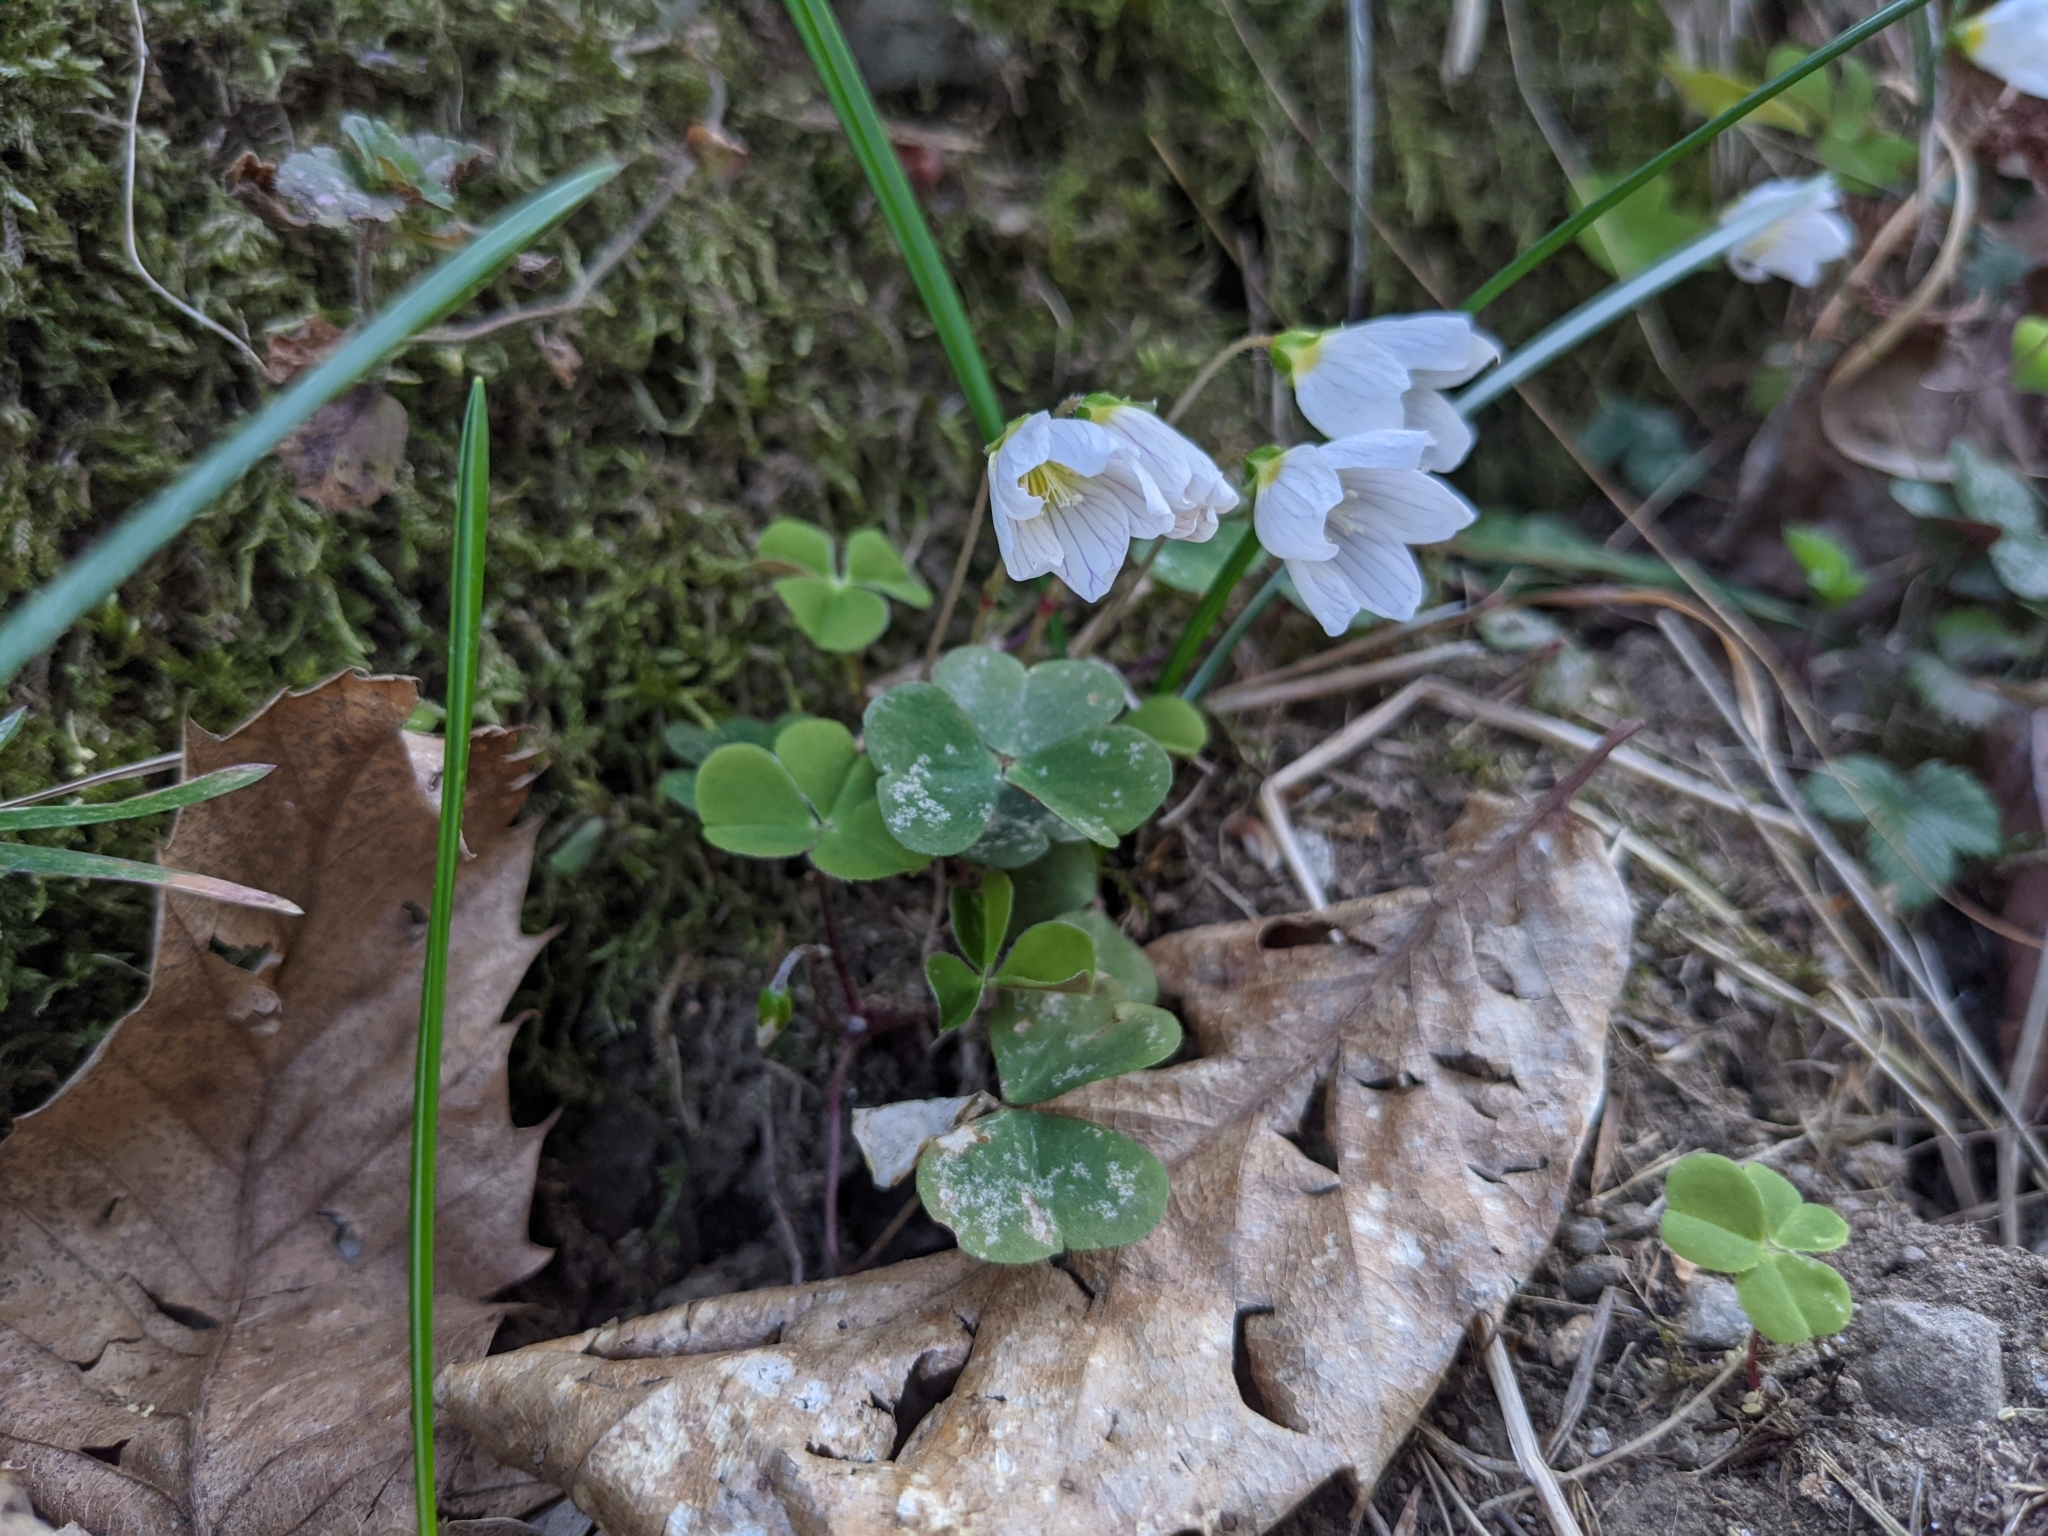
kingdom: Plantae
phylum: Tracheophyta
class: Magnoliopsida
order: Oxalidales
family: Oxalidaceae
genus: Oxalis
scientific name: Oxalis acetosella
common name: Wood-sorrel
